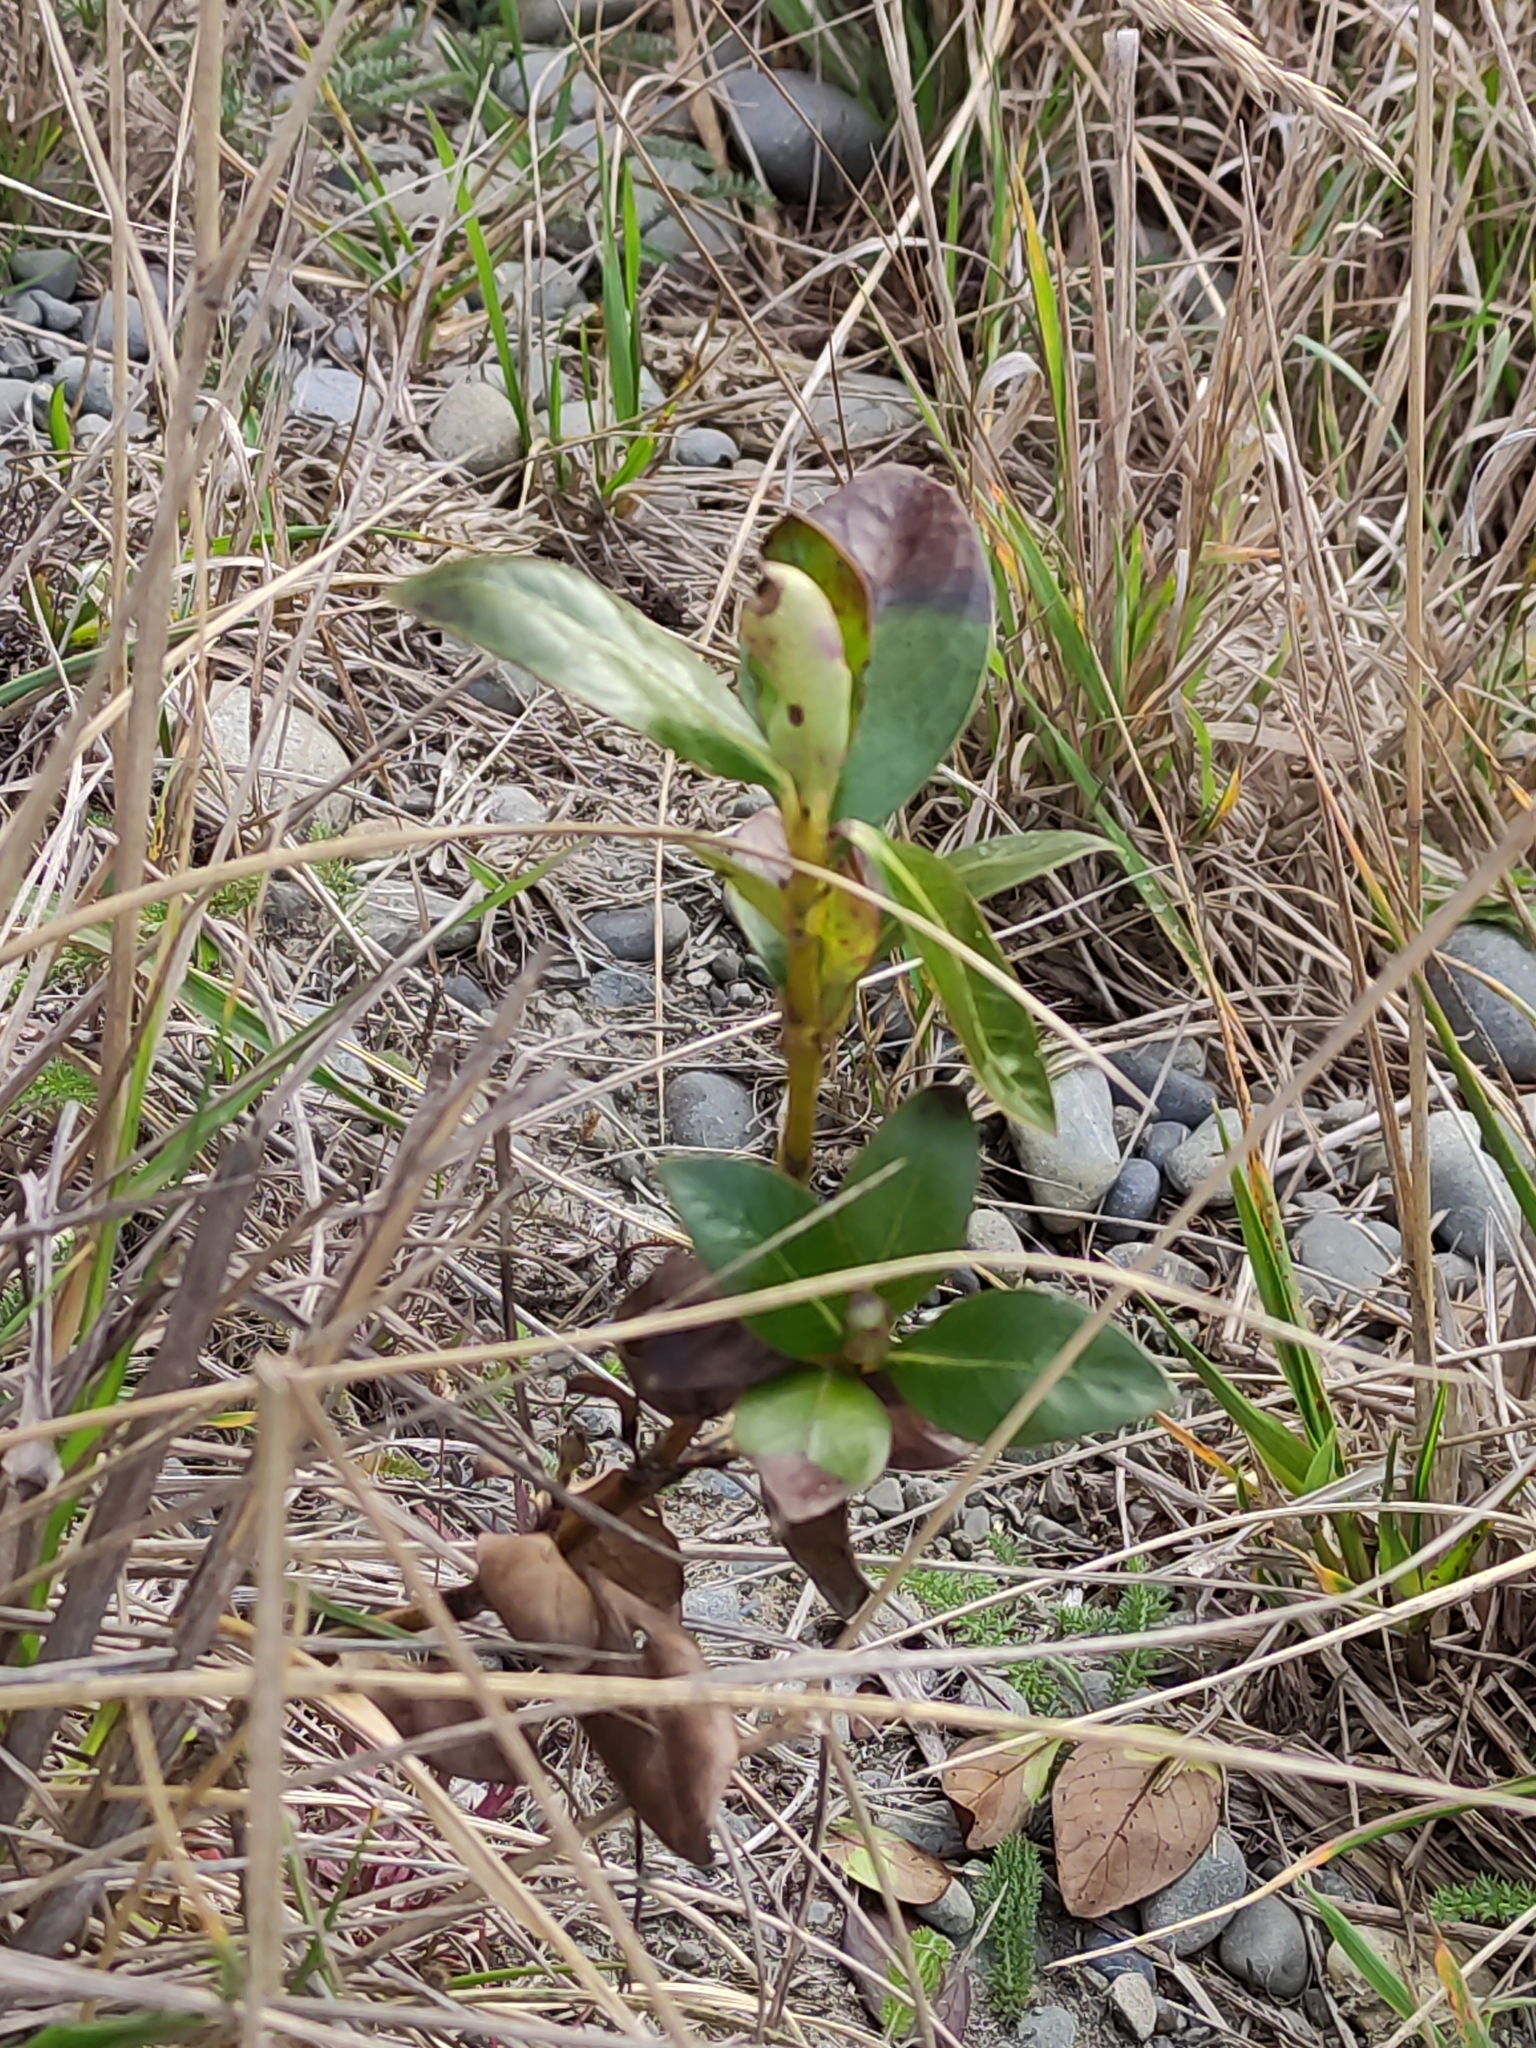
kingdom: Plantae
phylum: Tracheophyta
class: Magnoliopsida
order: Gentianales
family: Rubiaceae
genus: Coprosma
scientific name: Coprosma robusta
